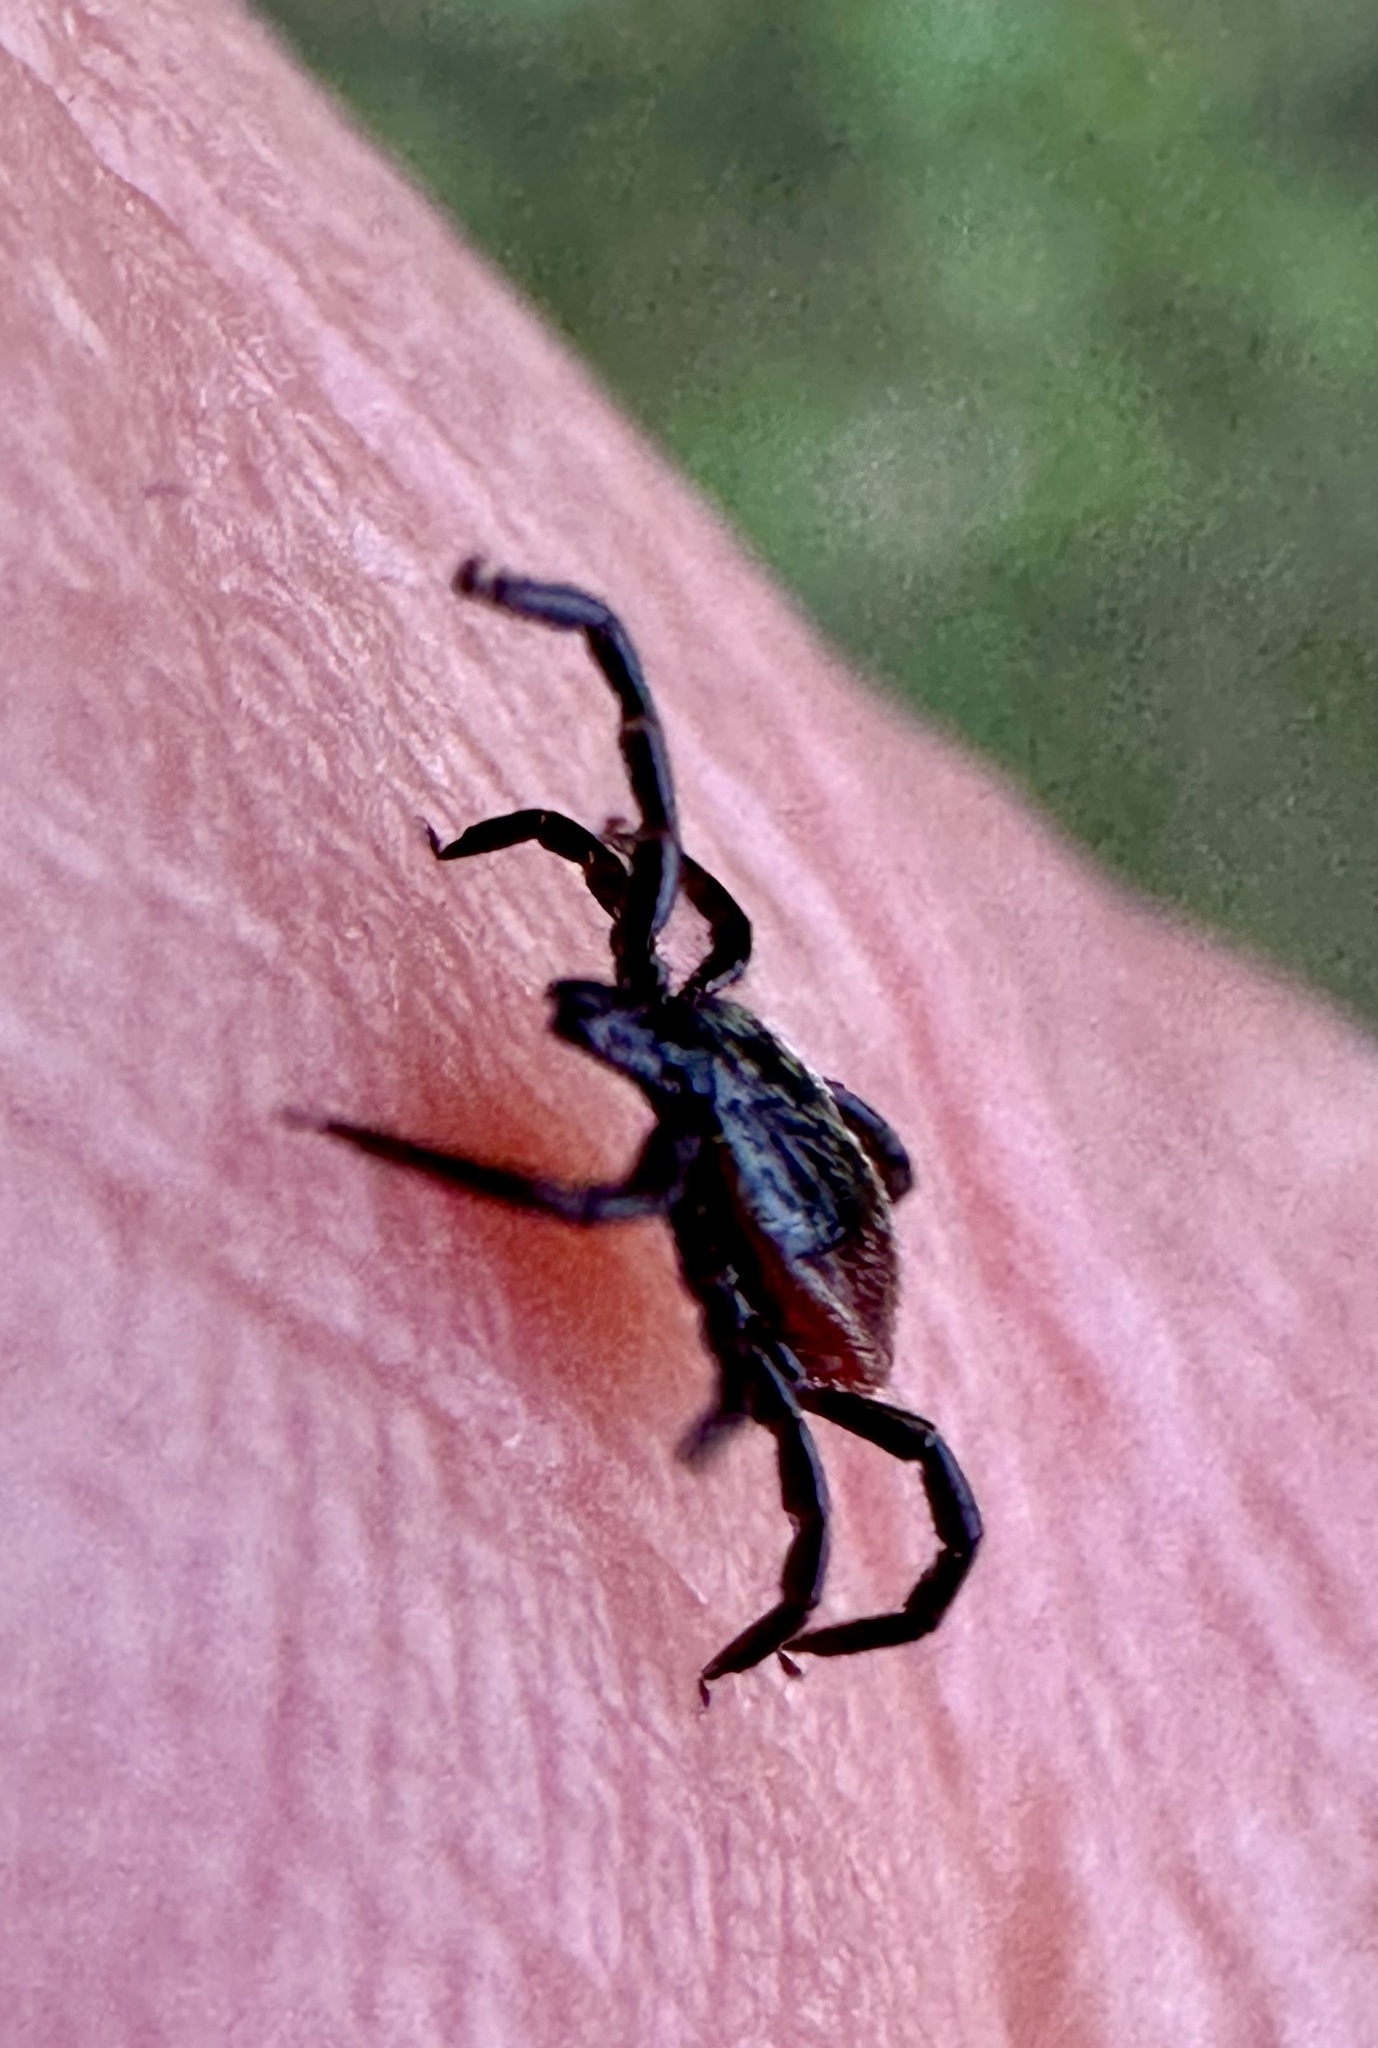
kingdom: Animalia
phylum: Arthropoda
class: Arachnida
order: Ixodida
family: Ixodidae
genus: Ixodes
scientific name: Ixodes pacificus
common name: California black-legged tick
